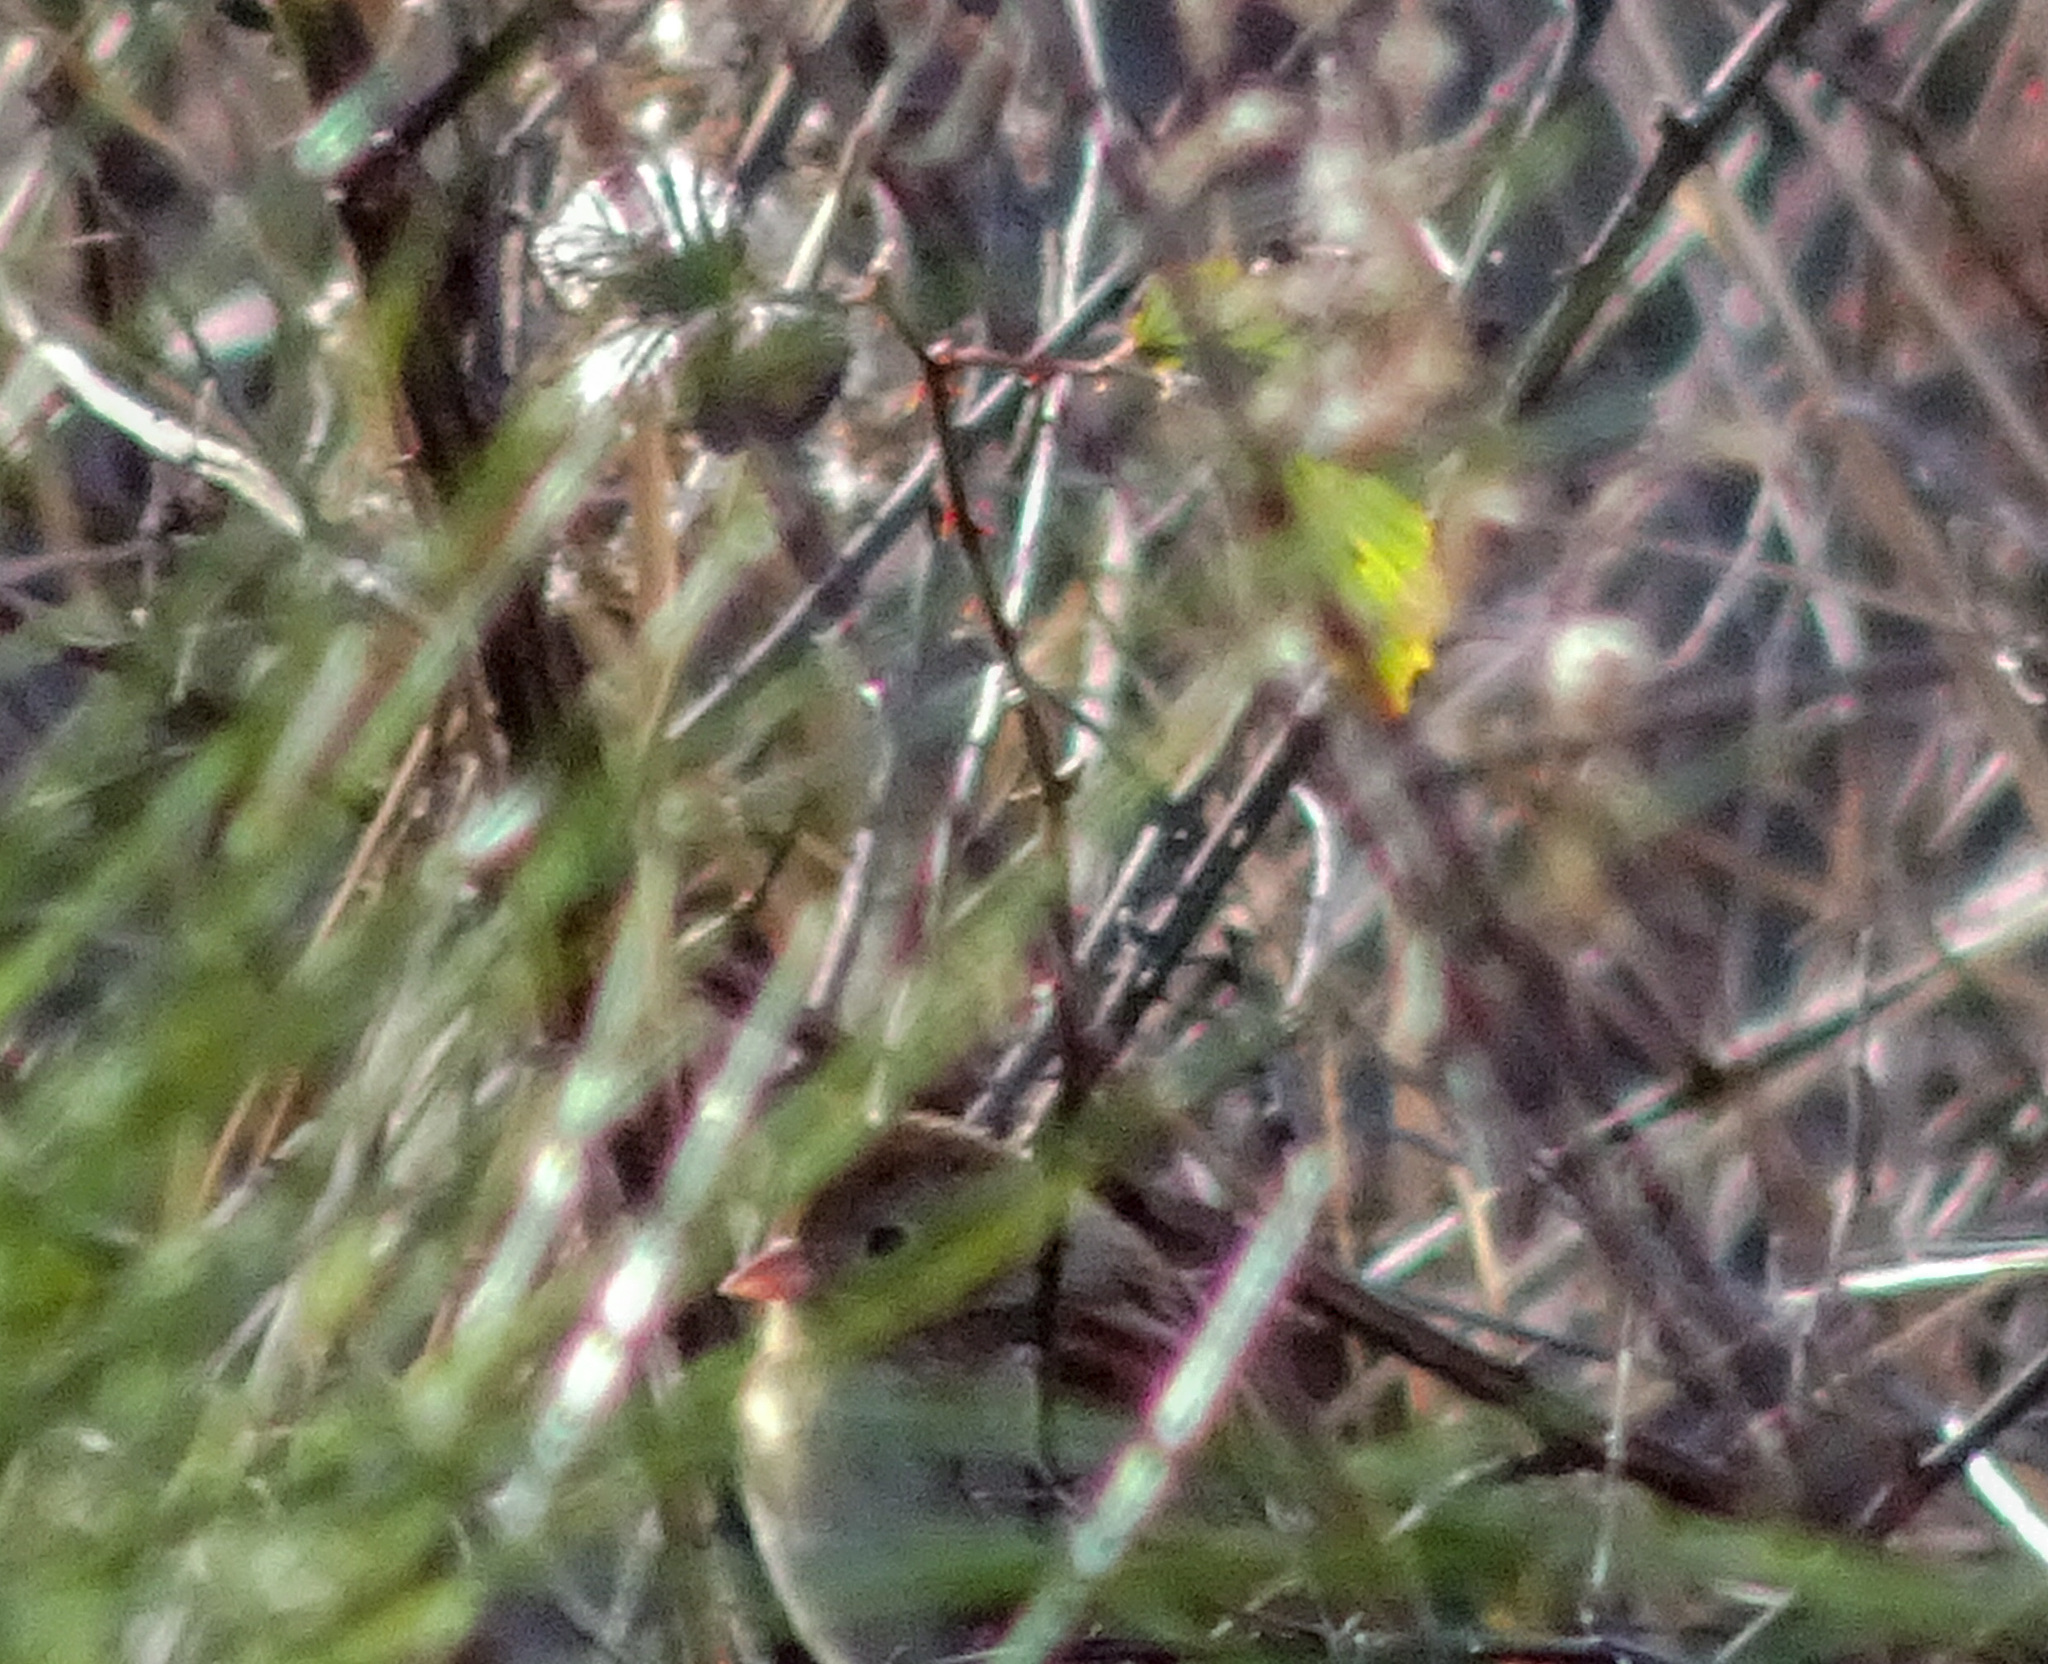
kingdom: Animalia
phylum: Chordata
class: Aves
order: Passeriformes
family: Passerellidae
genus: Spizella
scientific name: Spizella pusilla
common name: Field sparrow
